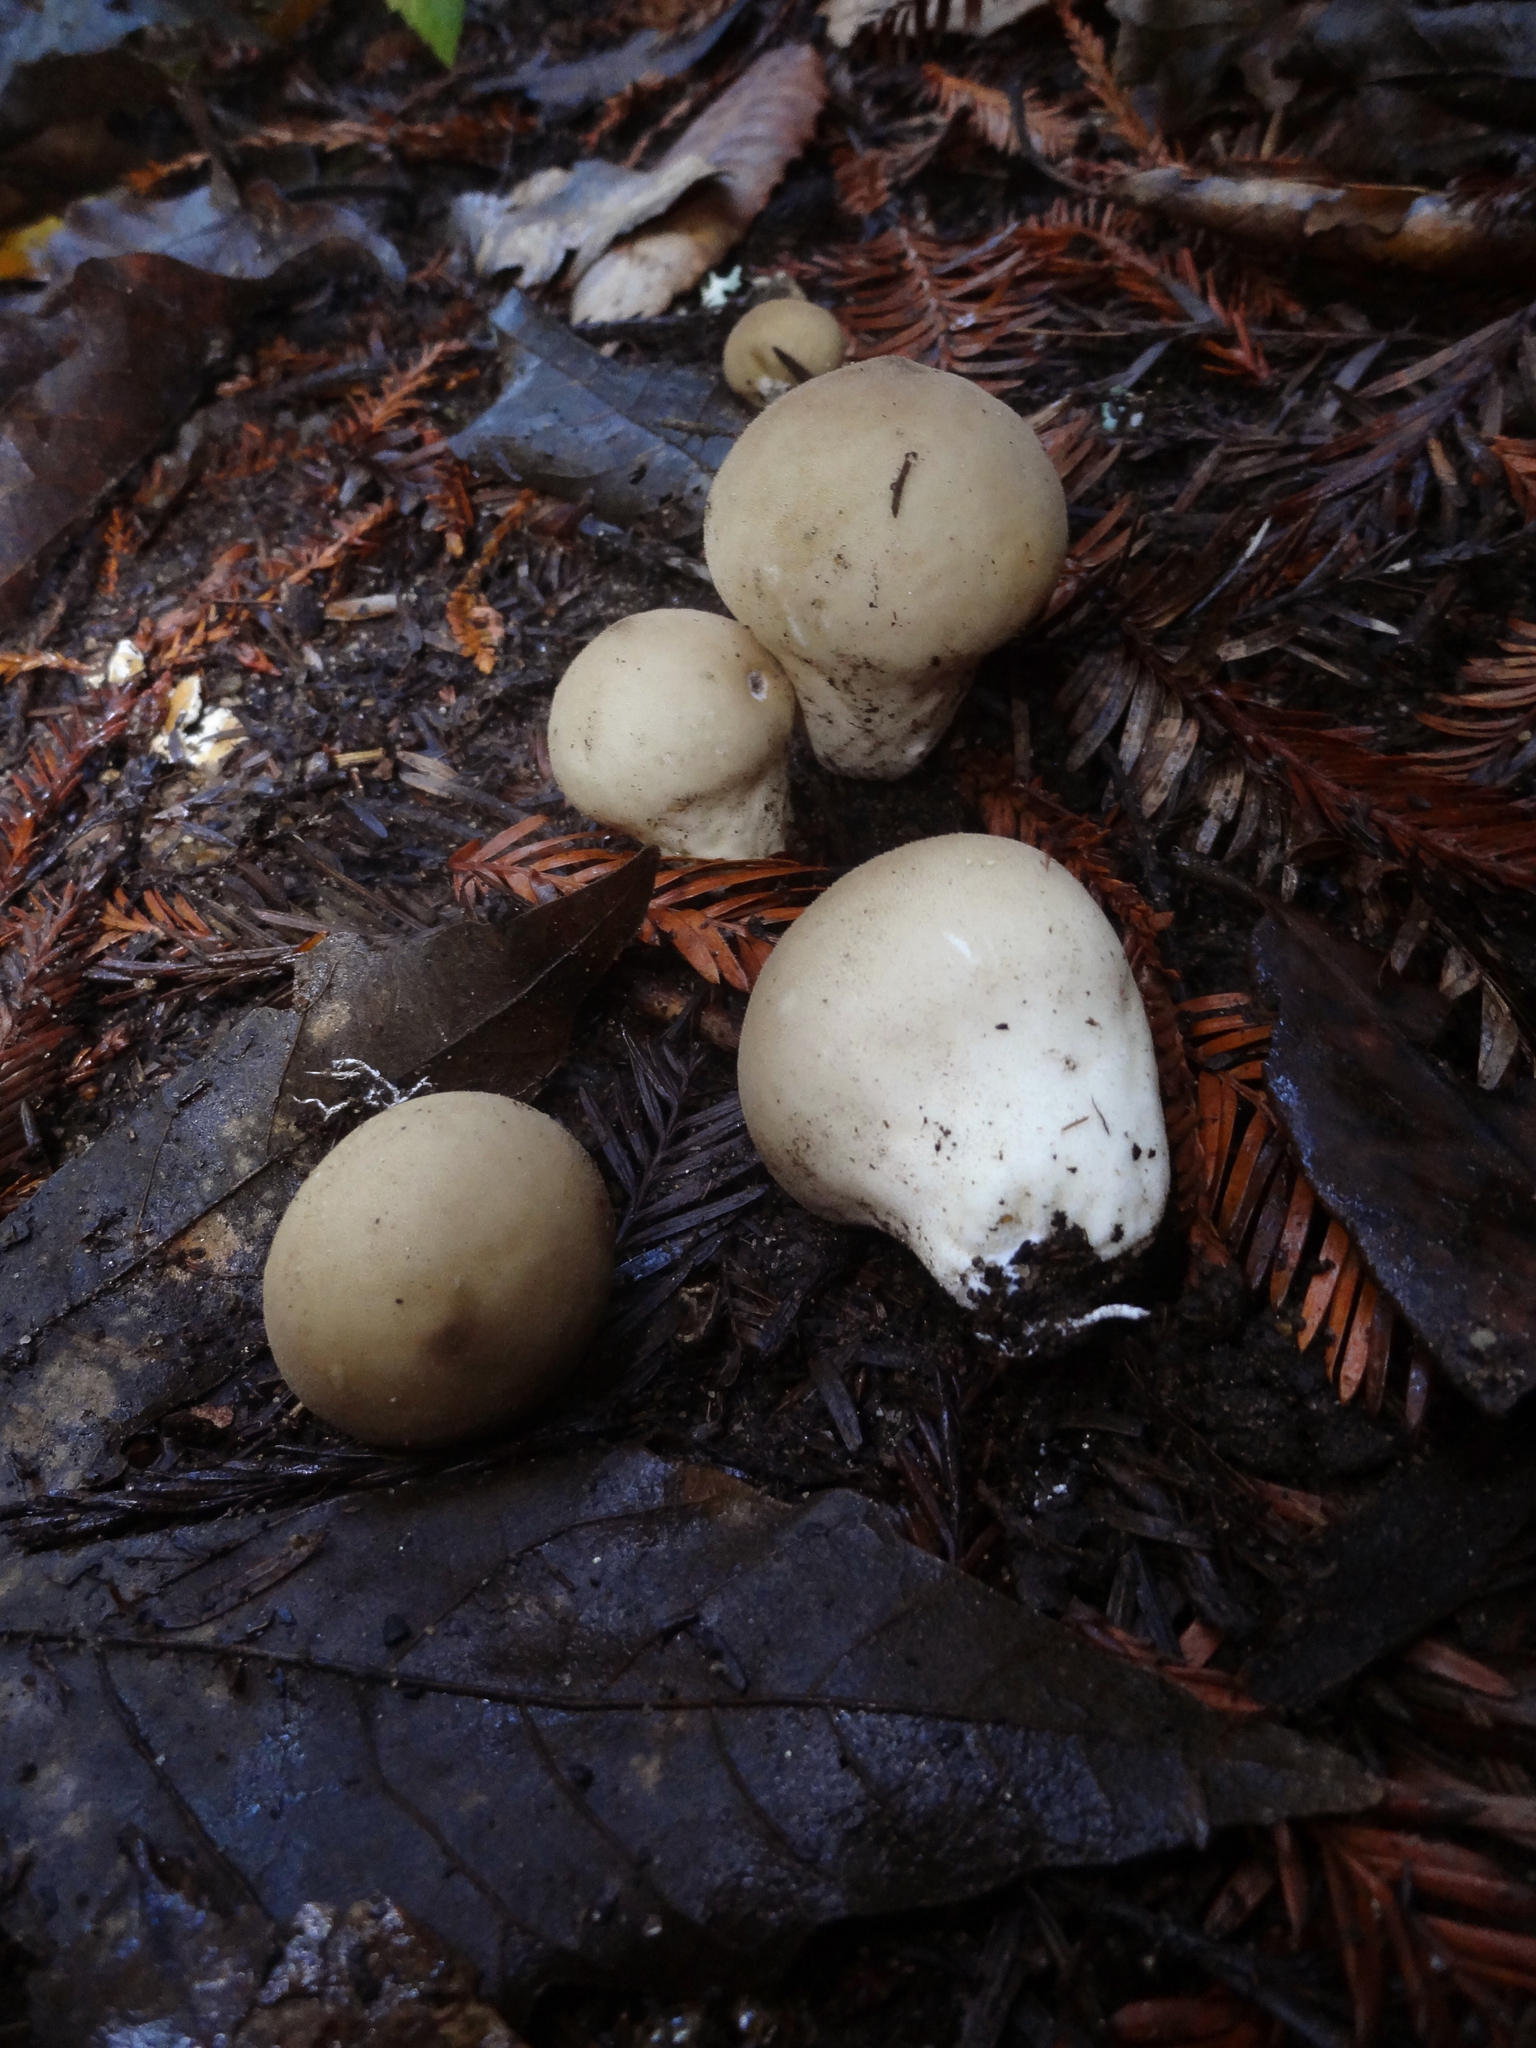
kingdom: Fungi
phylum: Basidiomycota
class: Agaricomycetes
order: Agaricales
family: Lycoperdaceae
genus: Apioperdon
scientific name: Apioperdon pyriforme
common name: Pear-shaped puffball
